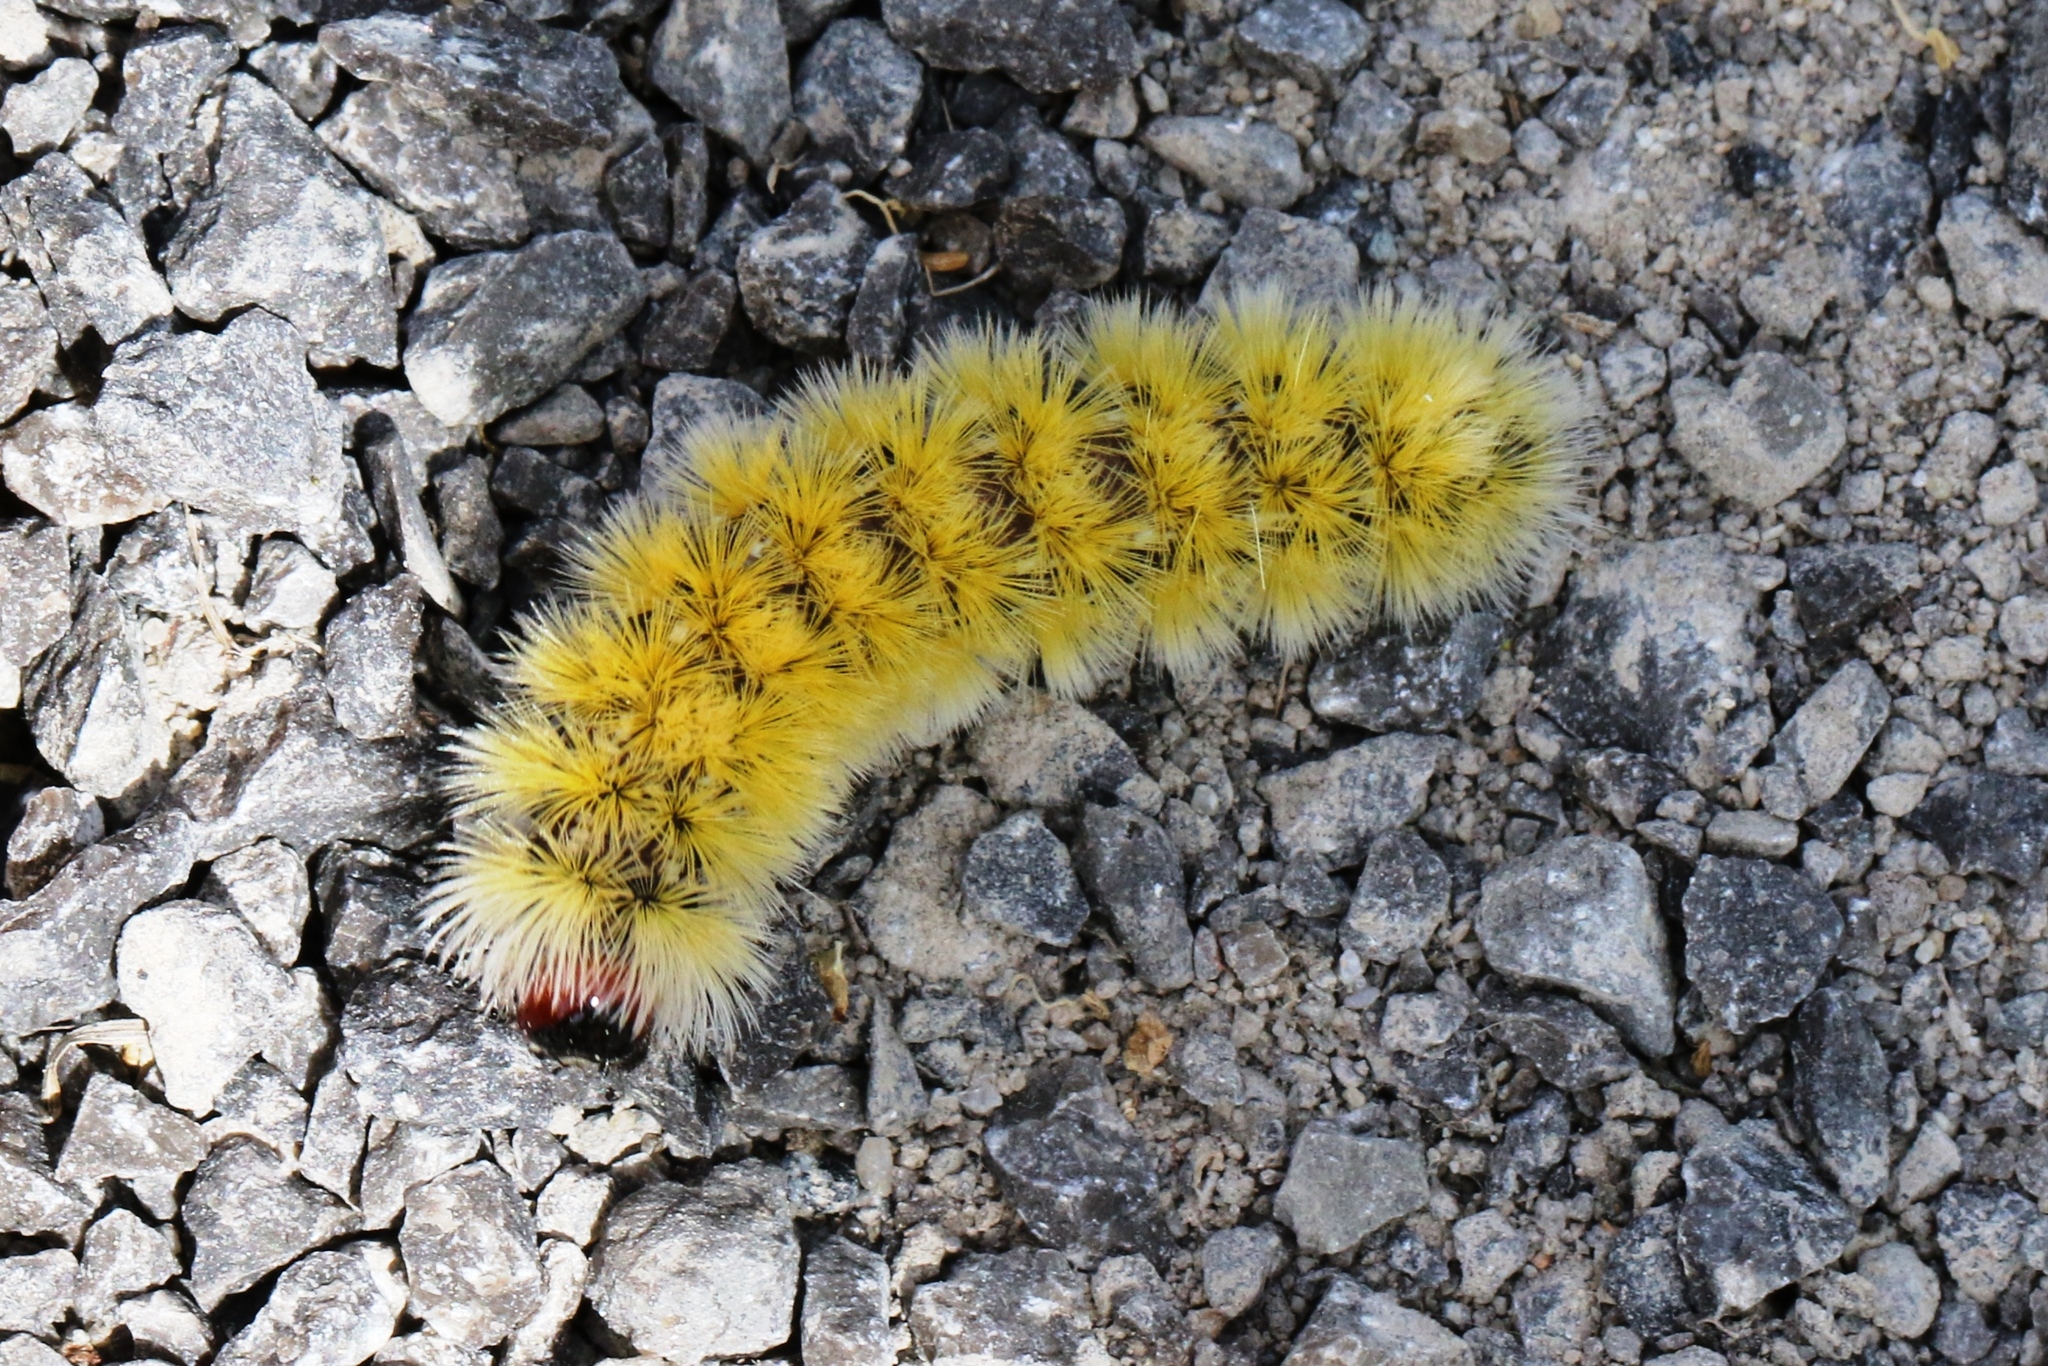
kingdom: Animalia
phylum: Arthropoda
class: Insecta
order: Lepidoptera
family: Erebidae
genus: Ctenucha
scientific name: Ctenucha virginica
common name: Virginia ctenucha moth
